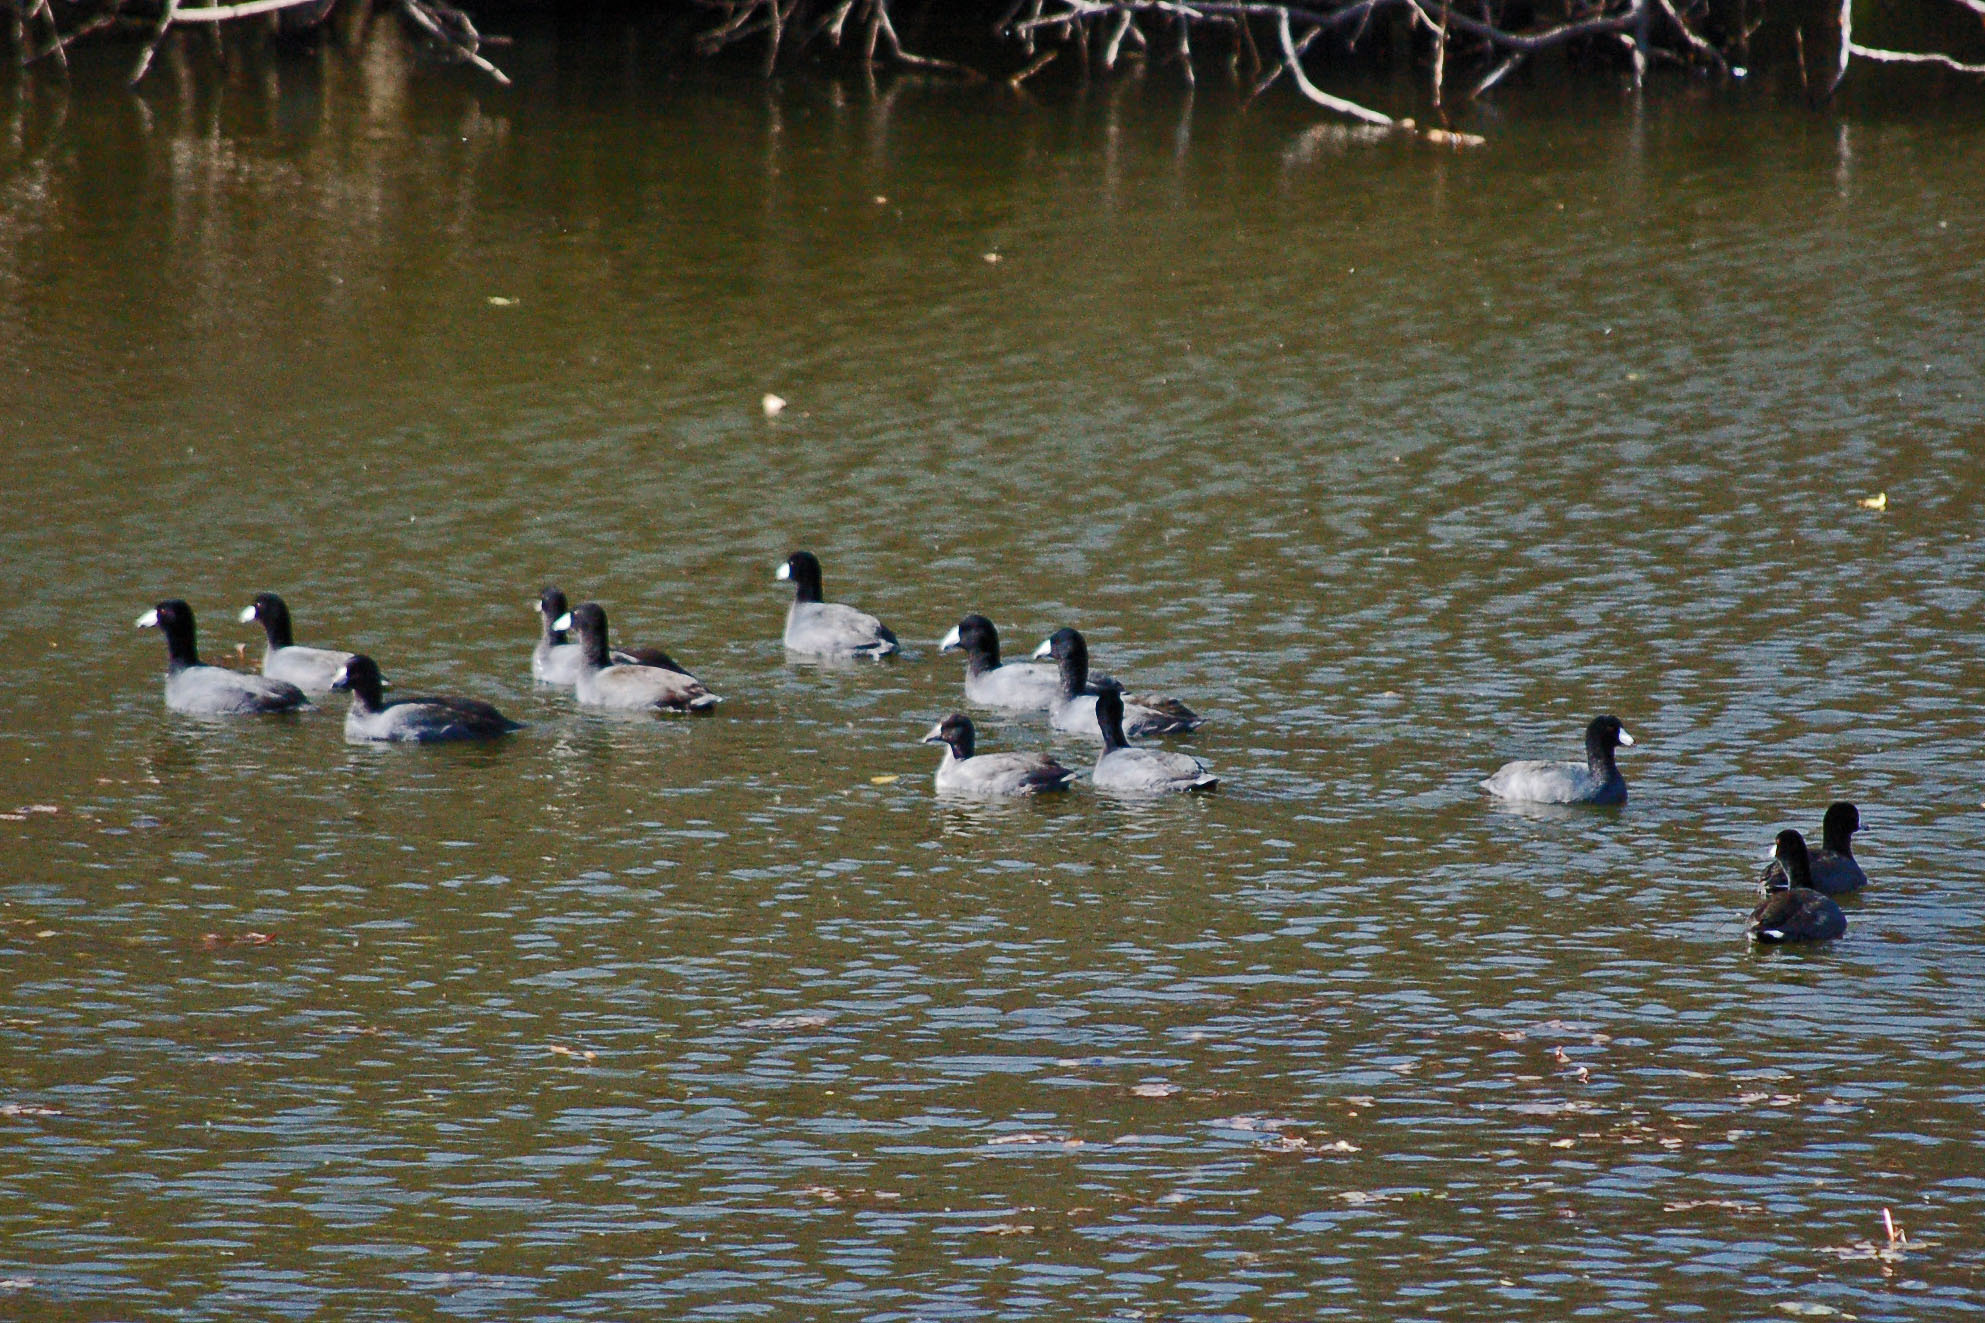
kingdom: Animalia
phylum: Chordata
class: Aves
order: Gruiformes
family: Rallidae
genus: Fulica
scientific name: Fulica americana
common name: American coot
